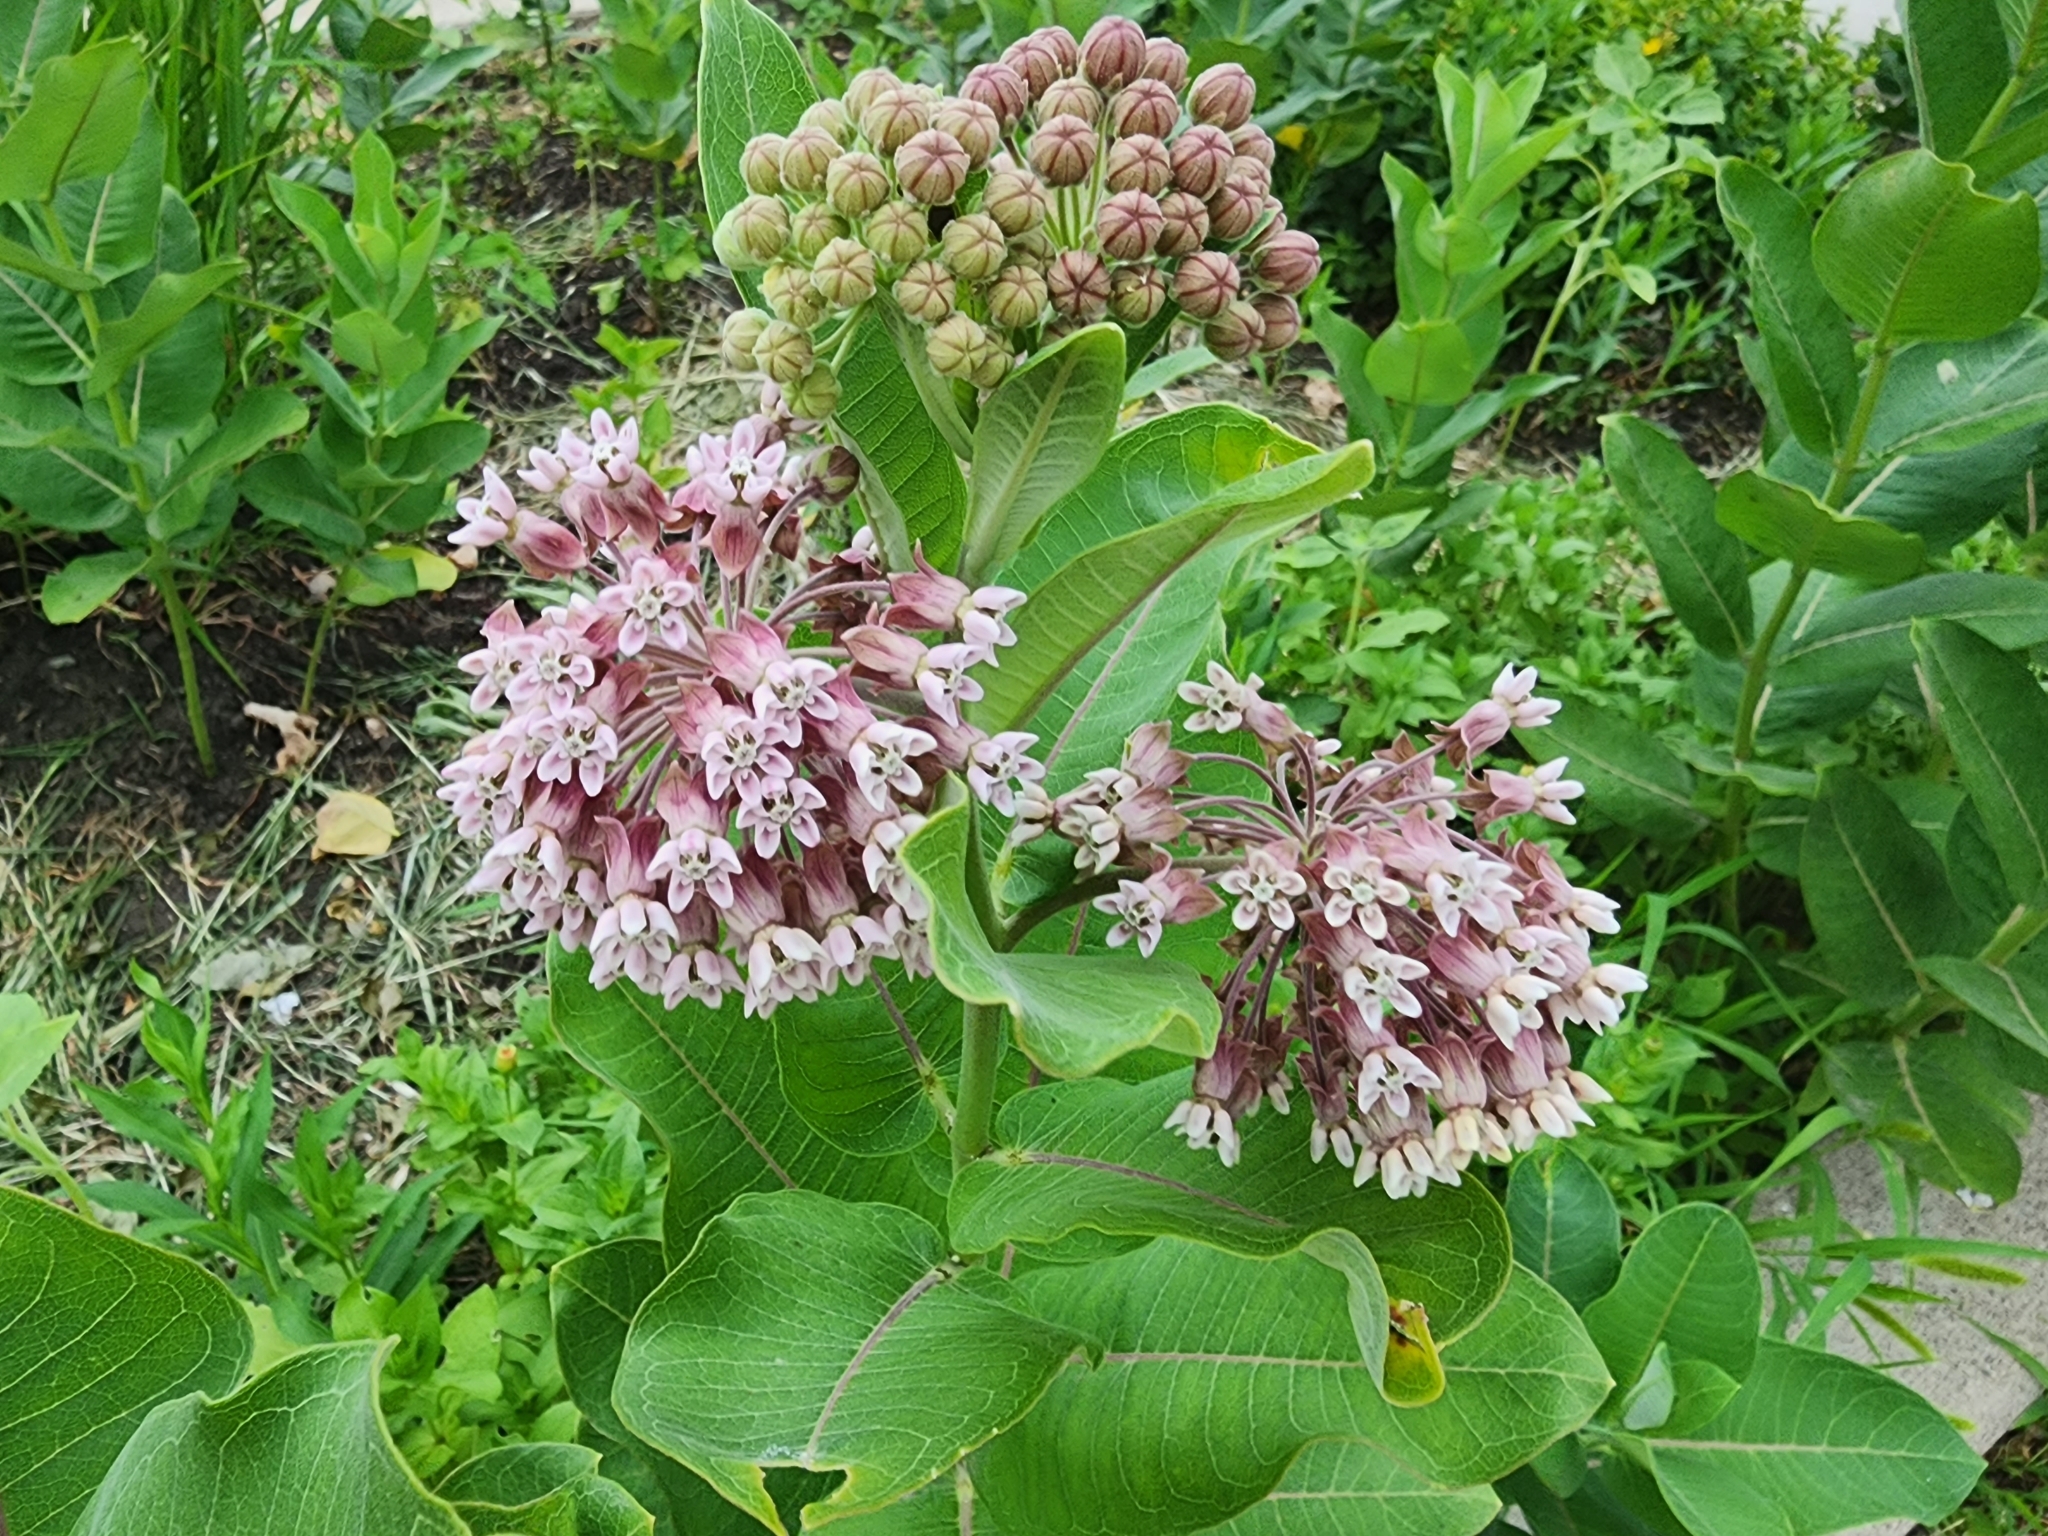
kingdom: Plantae
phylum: Tracheophyta
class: Magnoliopsida
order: Gentianales
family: Apocynaceae
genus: Asclepias
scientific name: Asclepias syriaca
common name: Common milkweed
